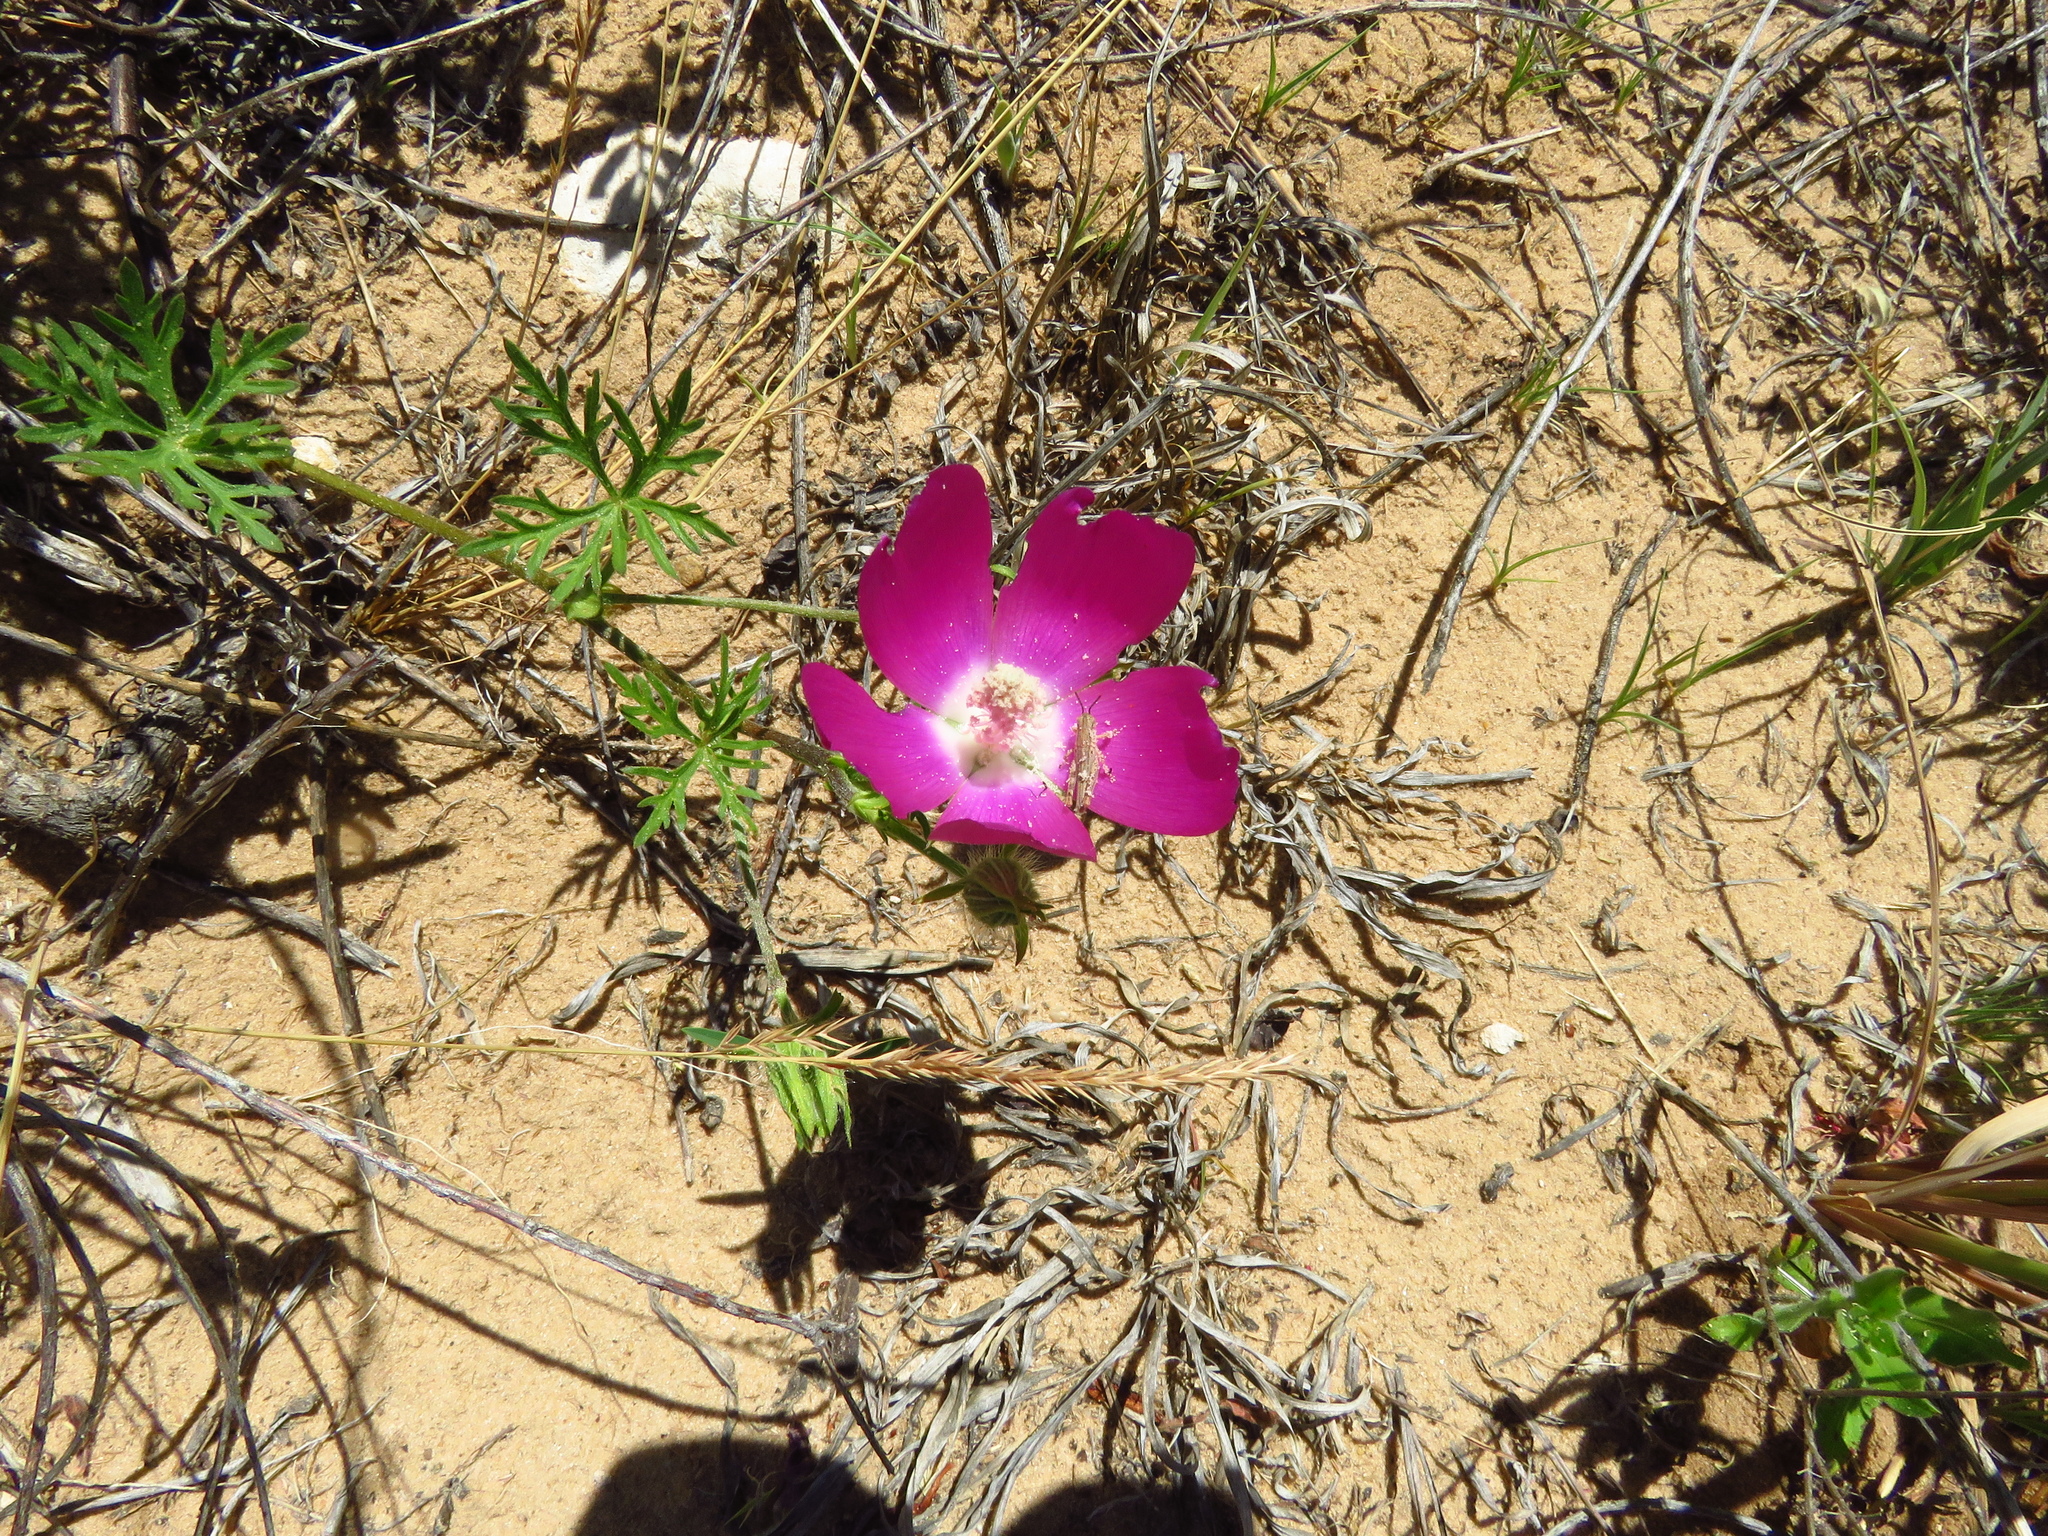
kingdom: Plantae
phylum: Tracheophyta
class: Magnoliopsida
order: Malvales
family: Malvaceae
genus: Callirhoe
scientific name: Callirhoe involucrata
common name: Purple poppy-mallow
